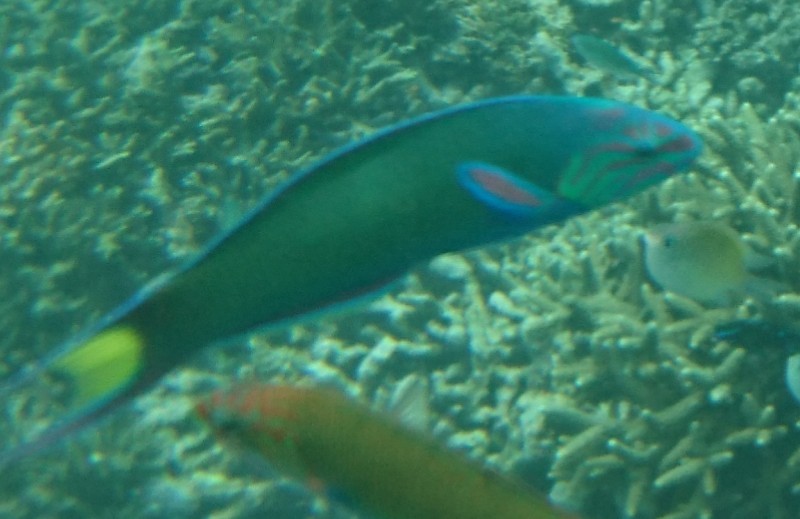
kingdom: Animalia
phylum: Chordata
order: Perciformes
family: Labridae
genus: Thalassoma
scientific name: Thalassoma lunare
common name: Blue wrasse
